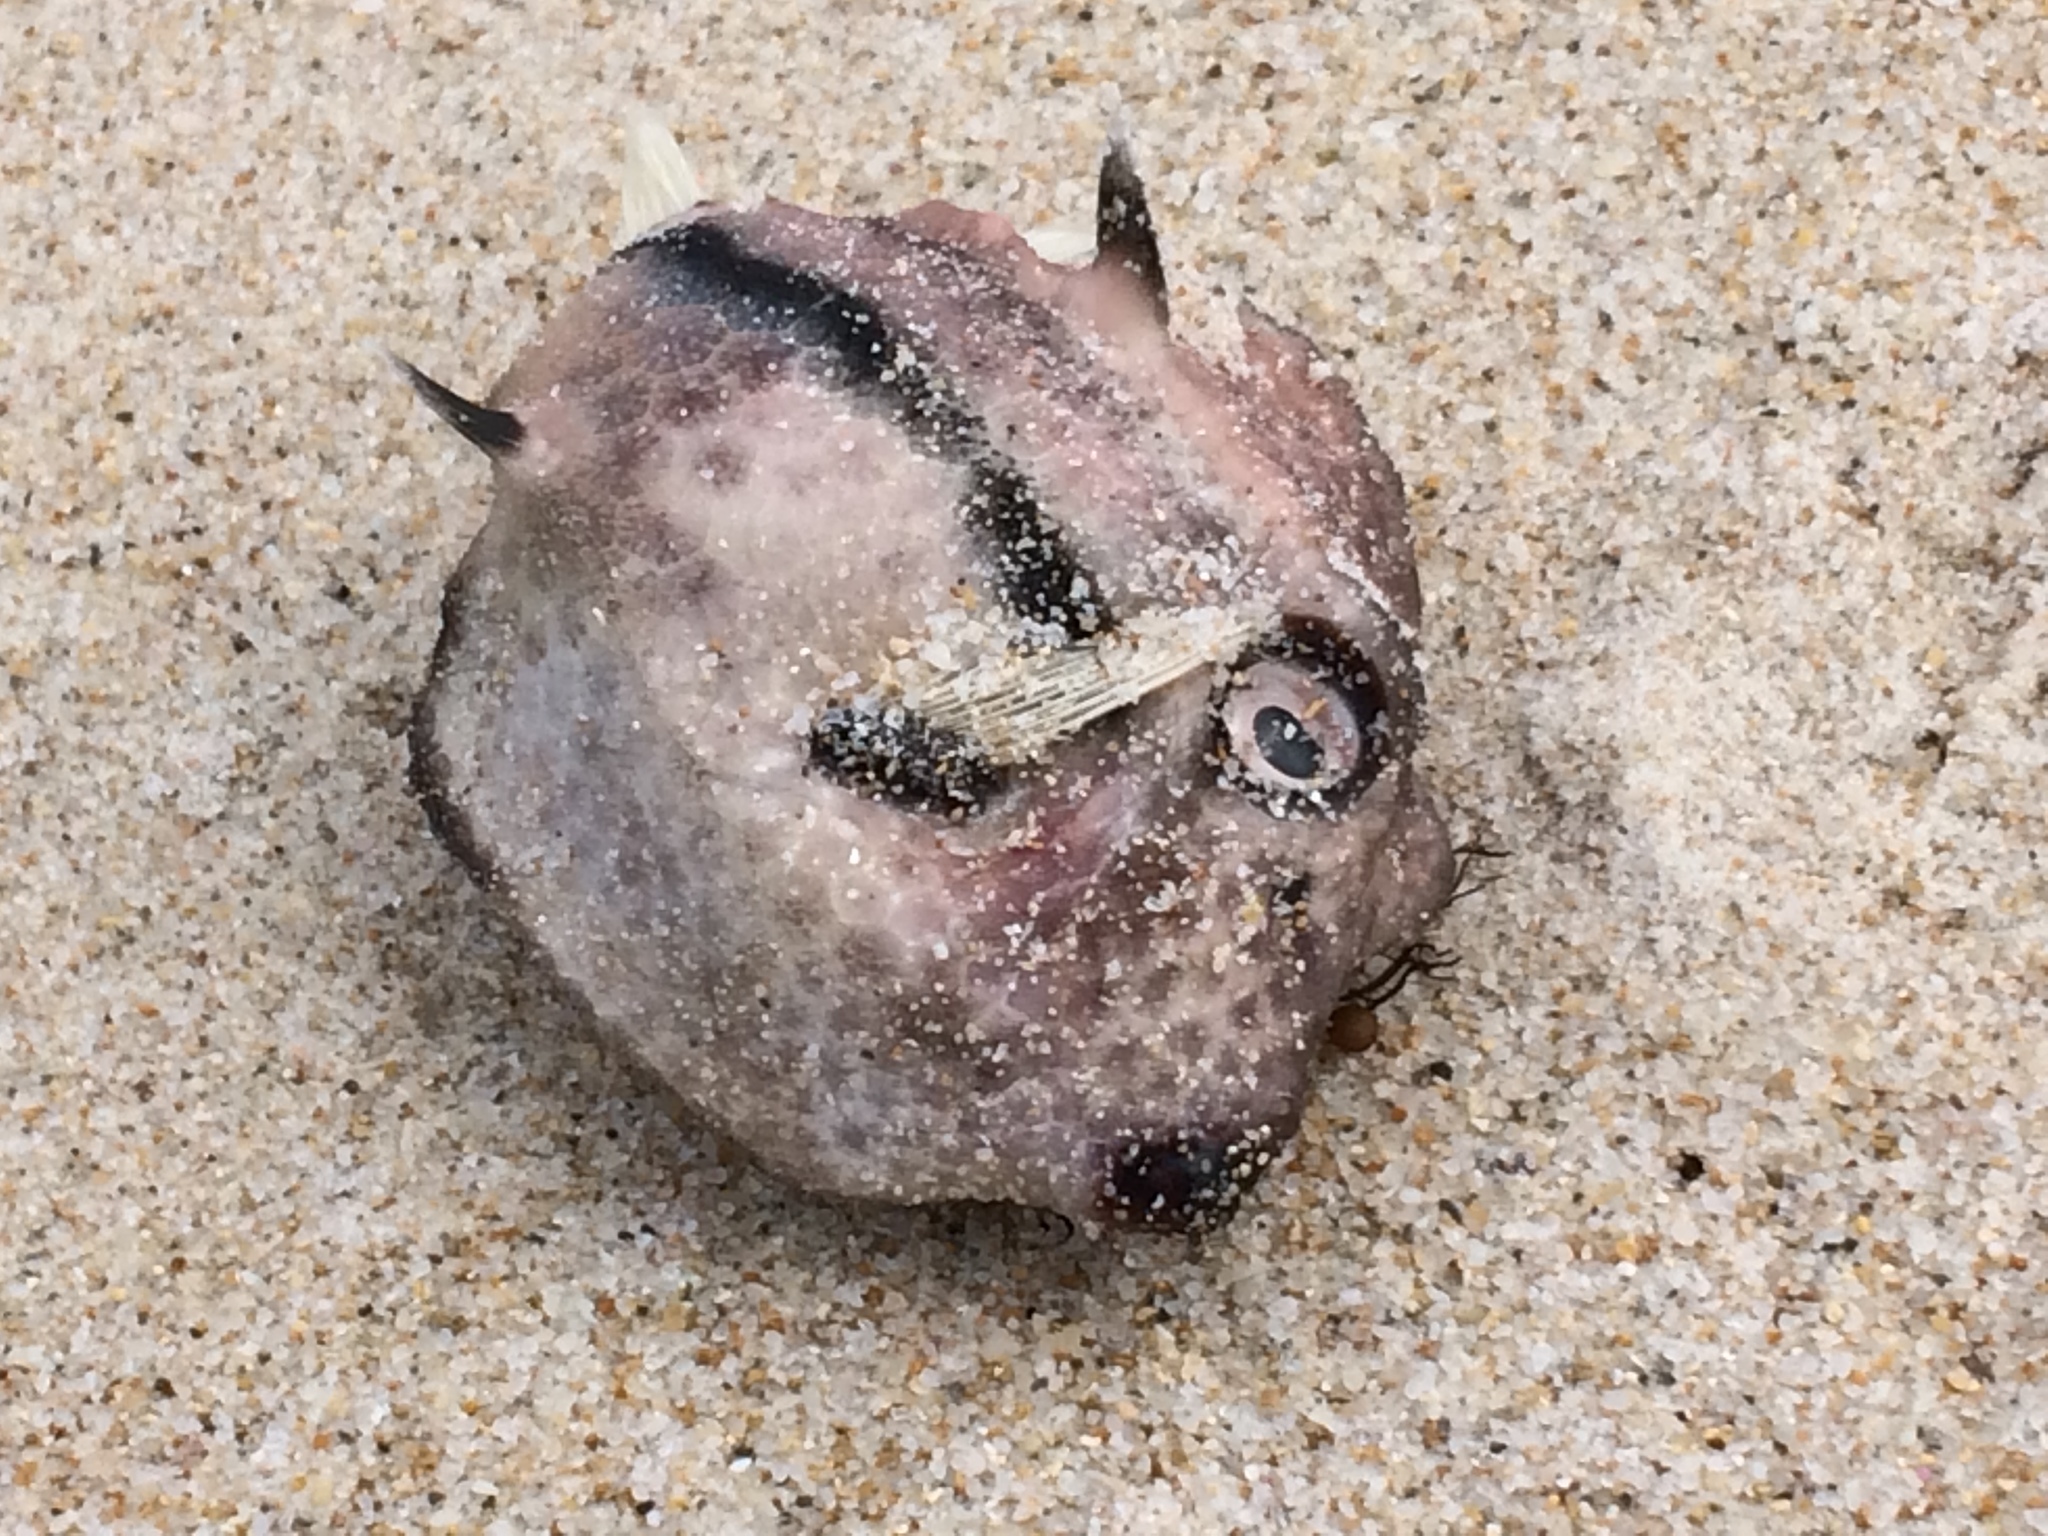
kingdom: Animalia
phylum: Chordata
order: Tetraodontiformes
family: Aracanidae
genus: Capropygia
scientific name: Capropygia unistriata
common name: Black-banded pygmy boxfish
